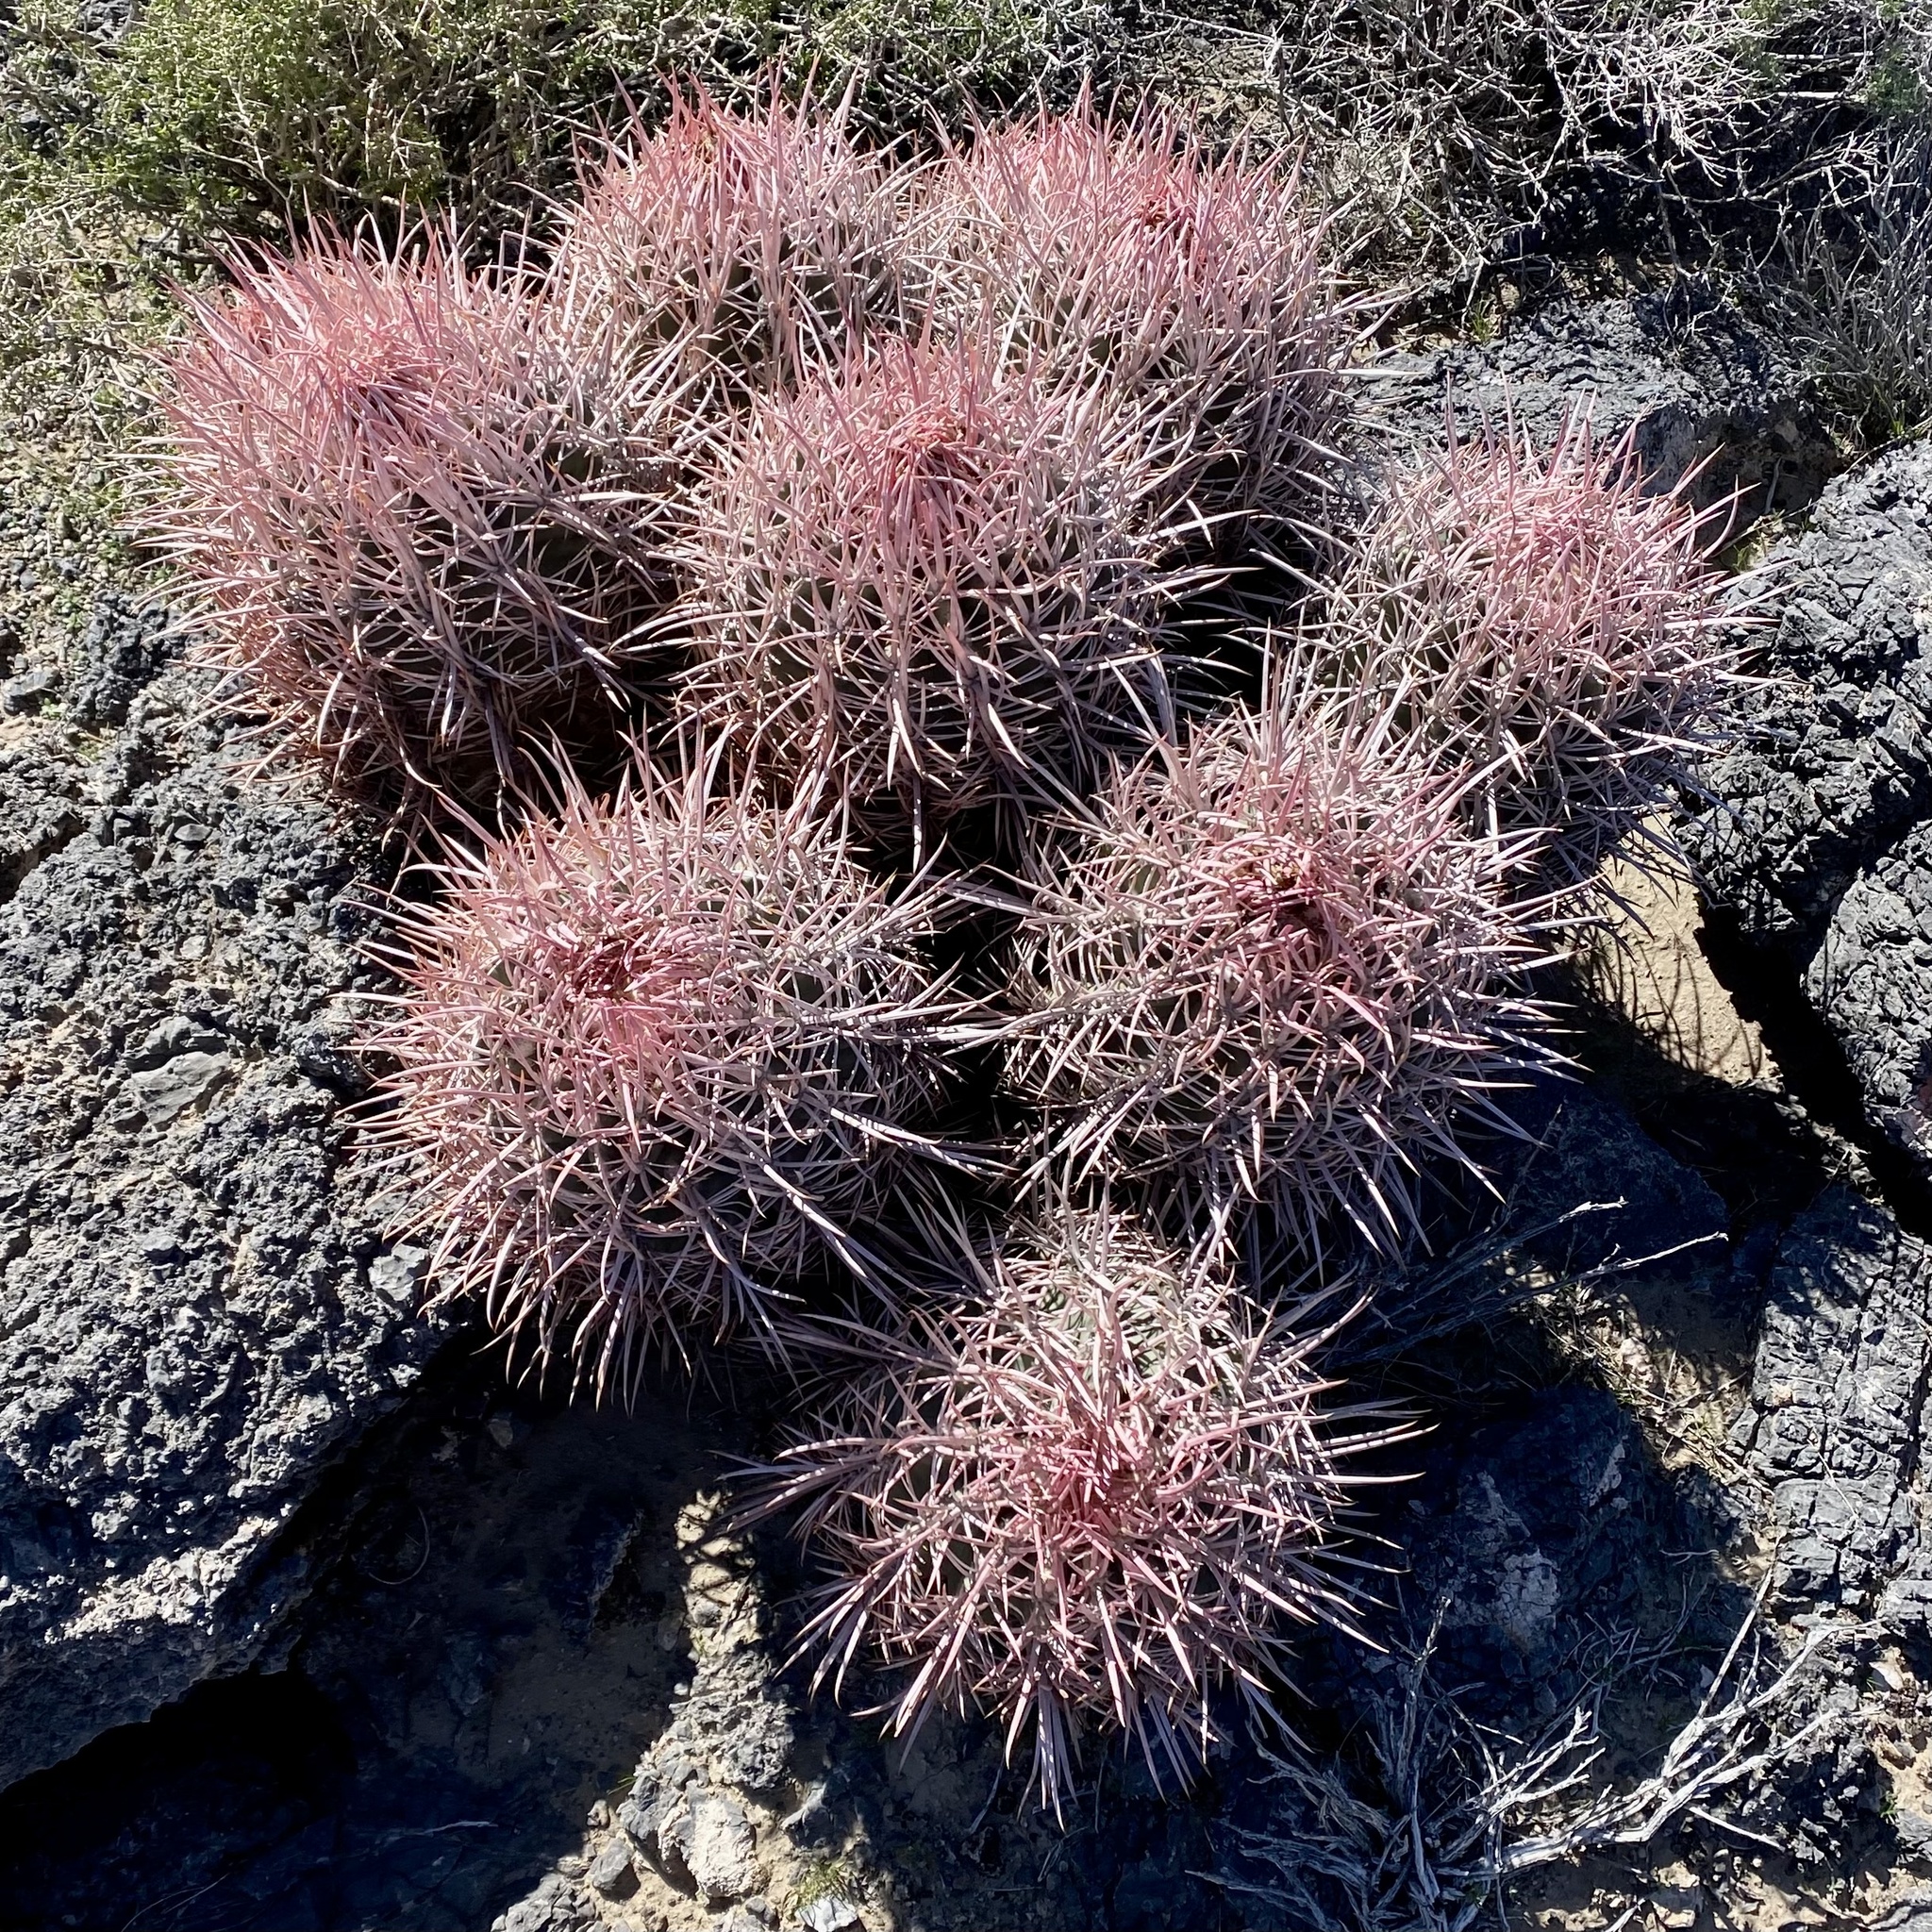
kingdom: Plantae
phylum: Tracheophyta
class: Magnoliopsida
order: Caryophyllales
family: Cactaceae
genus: Echinocactus
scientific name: Echinocactus polycephalus
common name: Cottontop cactus
